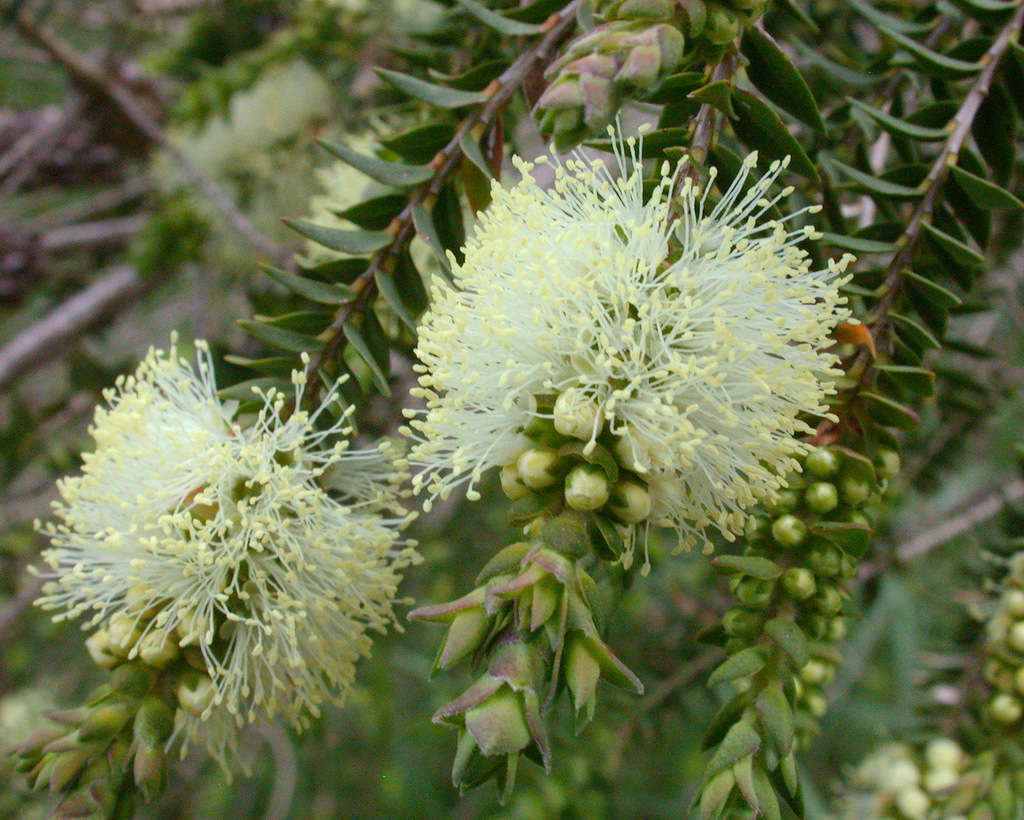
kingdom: Plantae
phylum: Tracheophyta
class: Magnoliopsida
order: Myrtales
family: Myrtaceae
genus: Melaleuca
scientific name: Melaleuca squarrosa
